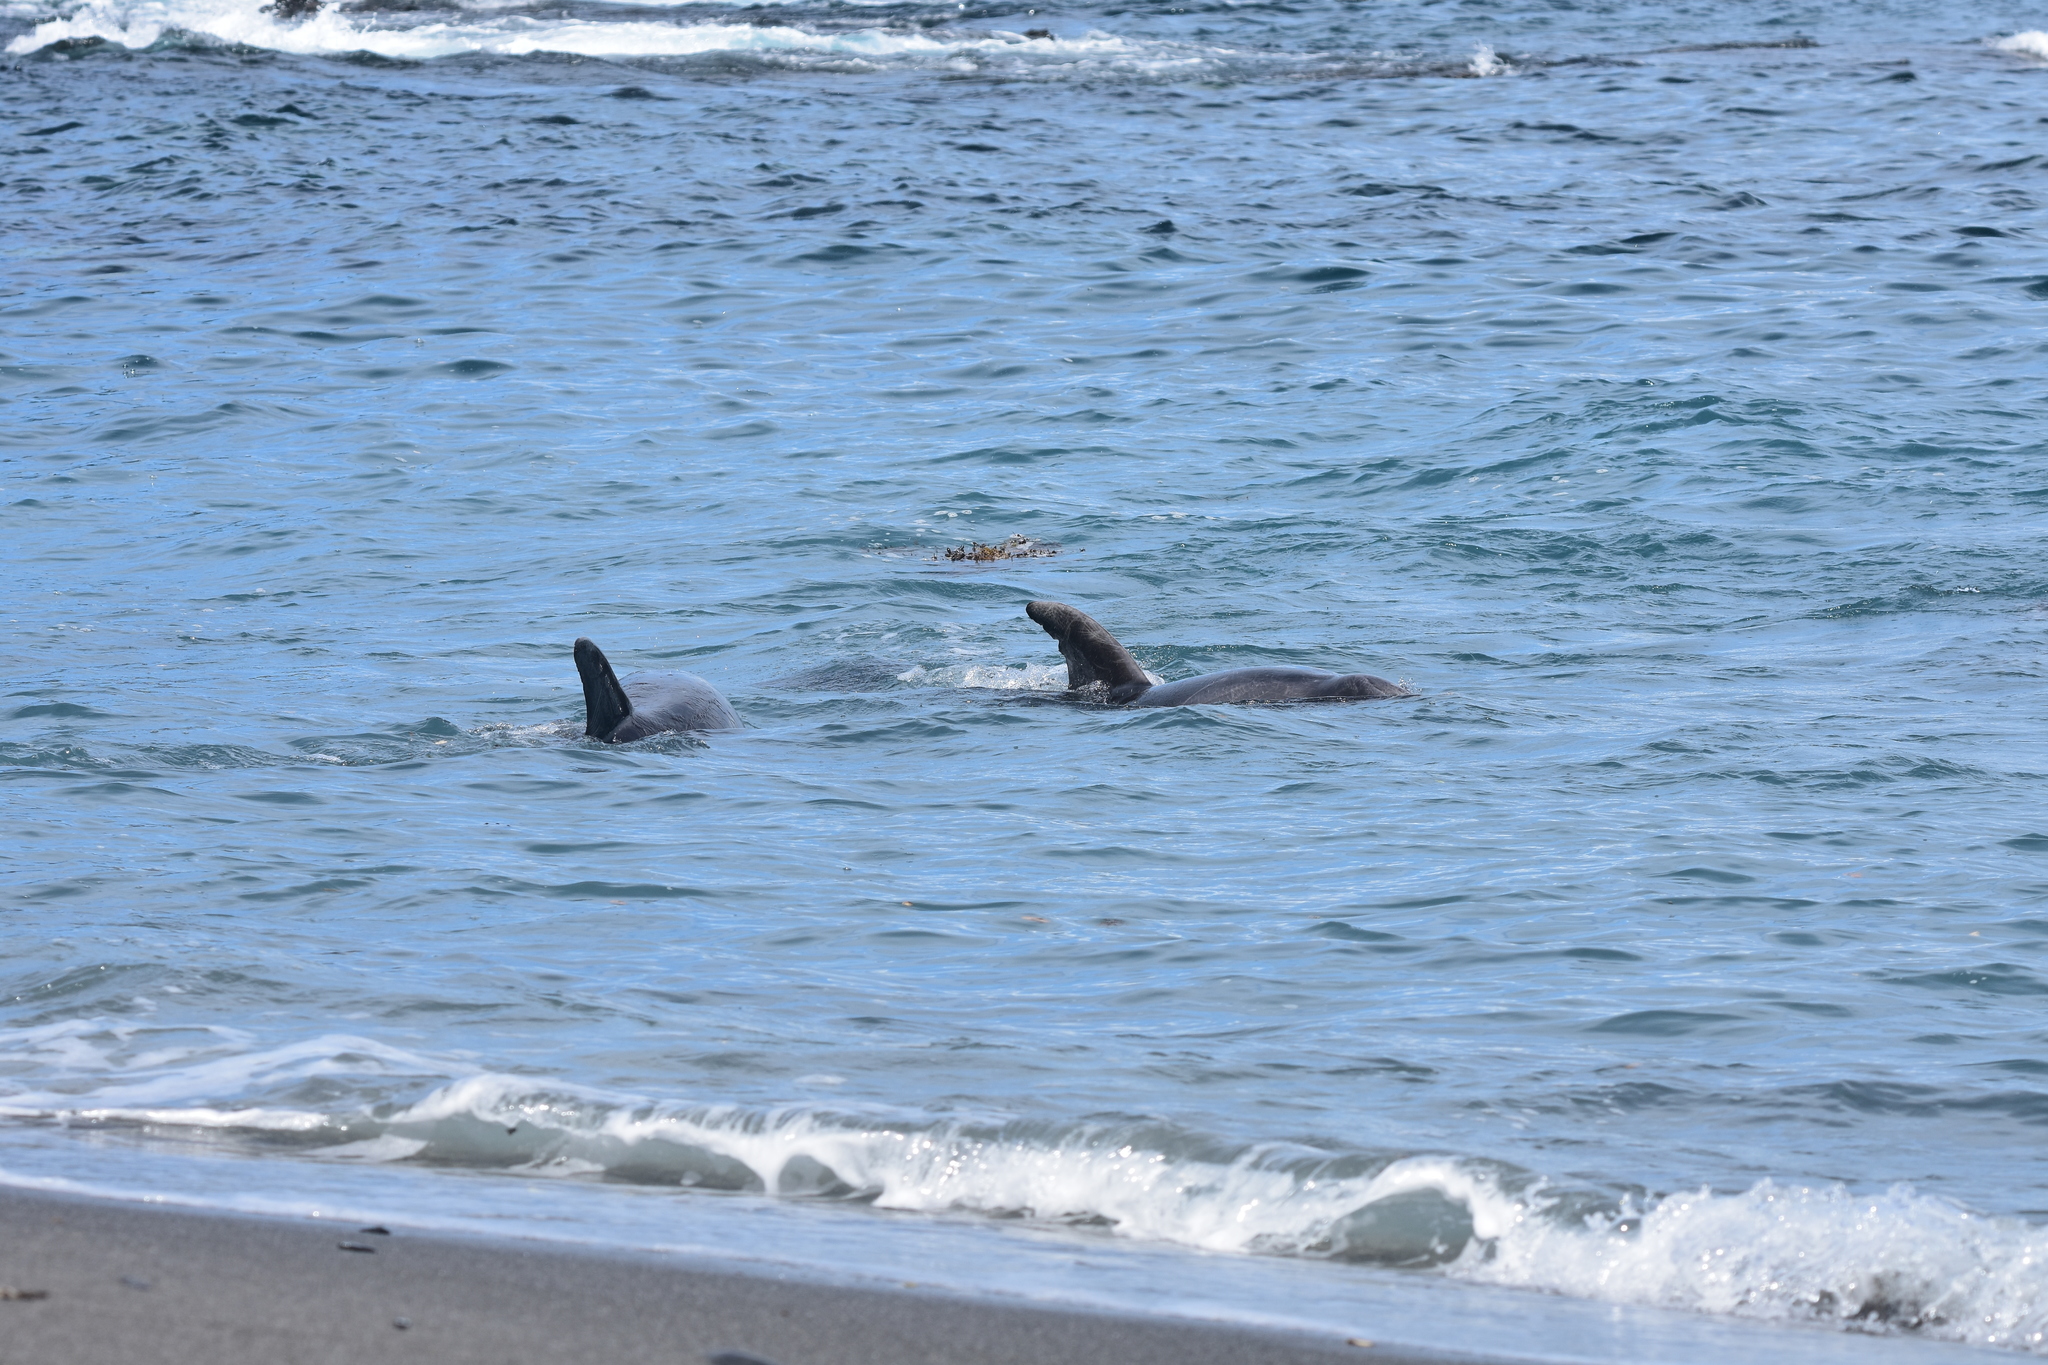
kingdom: Animalia
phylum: Chordata
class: Mammalia
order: Cetacea
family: Delphinidae
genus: Tursiops
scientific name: Tursiops truncatus
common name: Bottlenose dolphin
